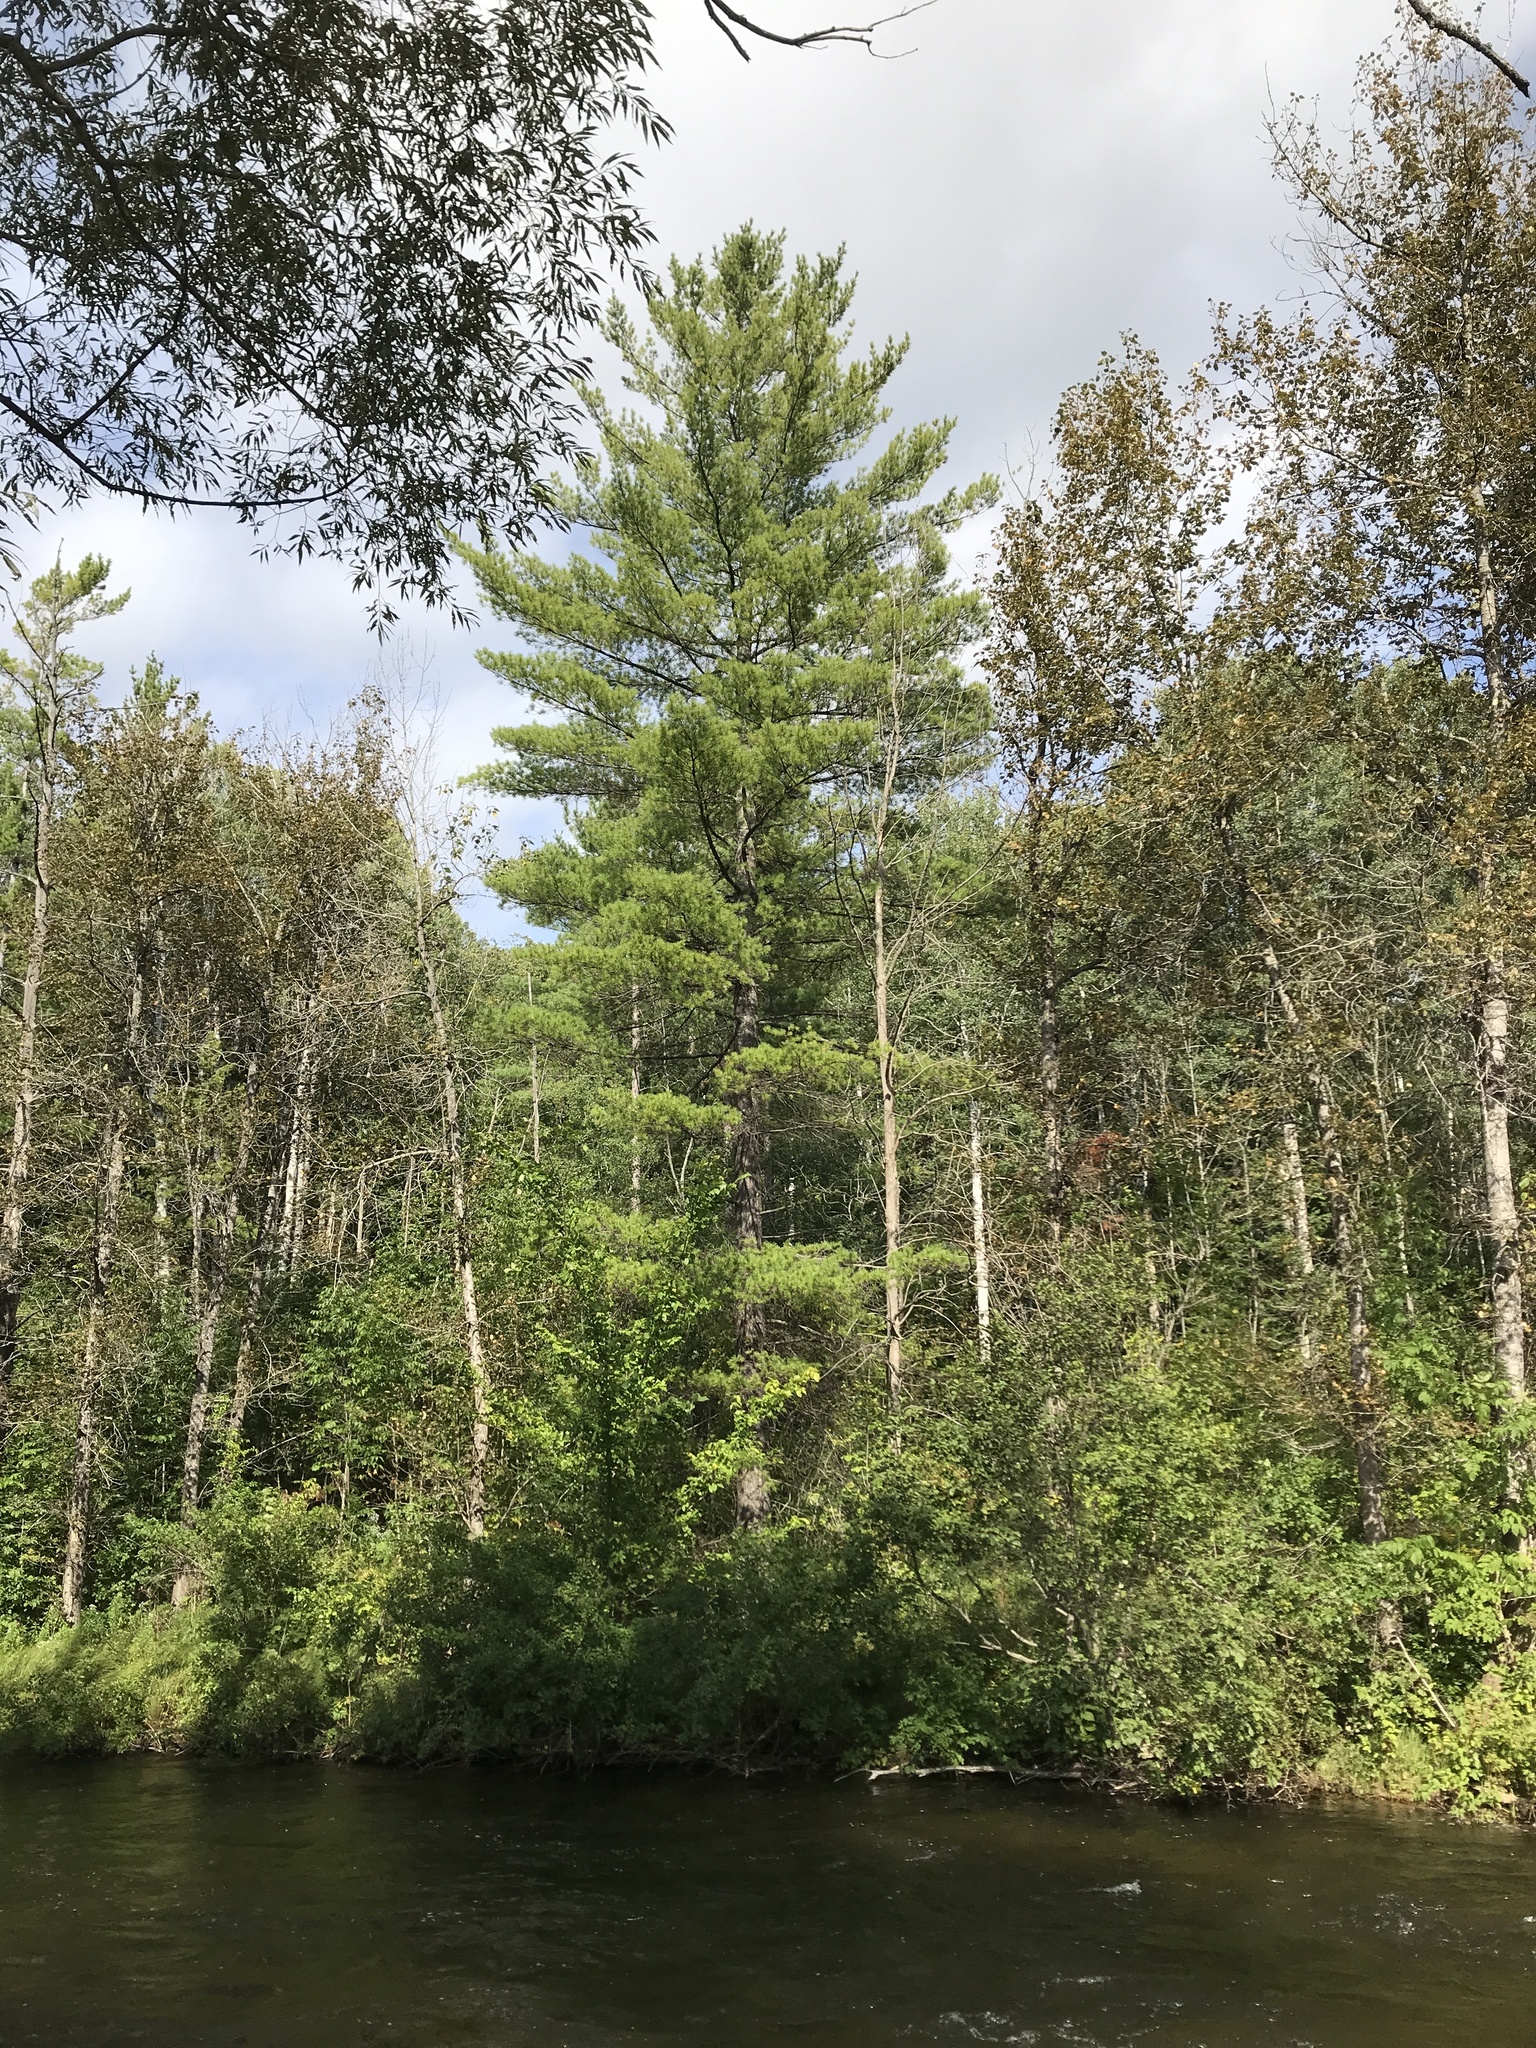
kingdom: Plantae
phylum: Tracheophyta
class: Pinopsida
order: Pinales
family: Pinaceae
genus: Pinus
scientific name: Pinus strobus
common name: Weymouth pine
